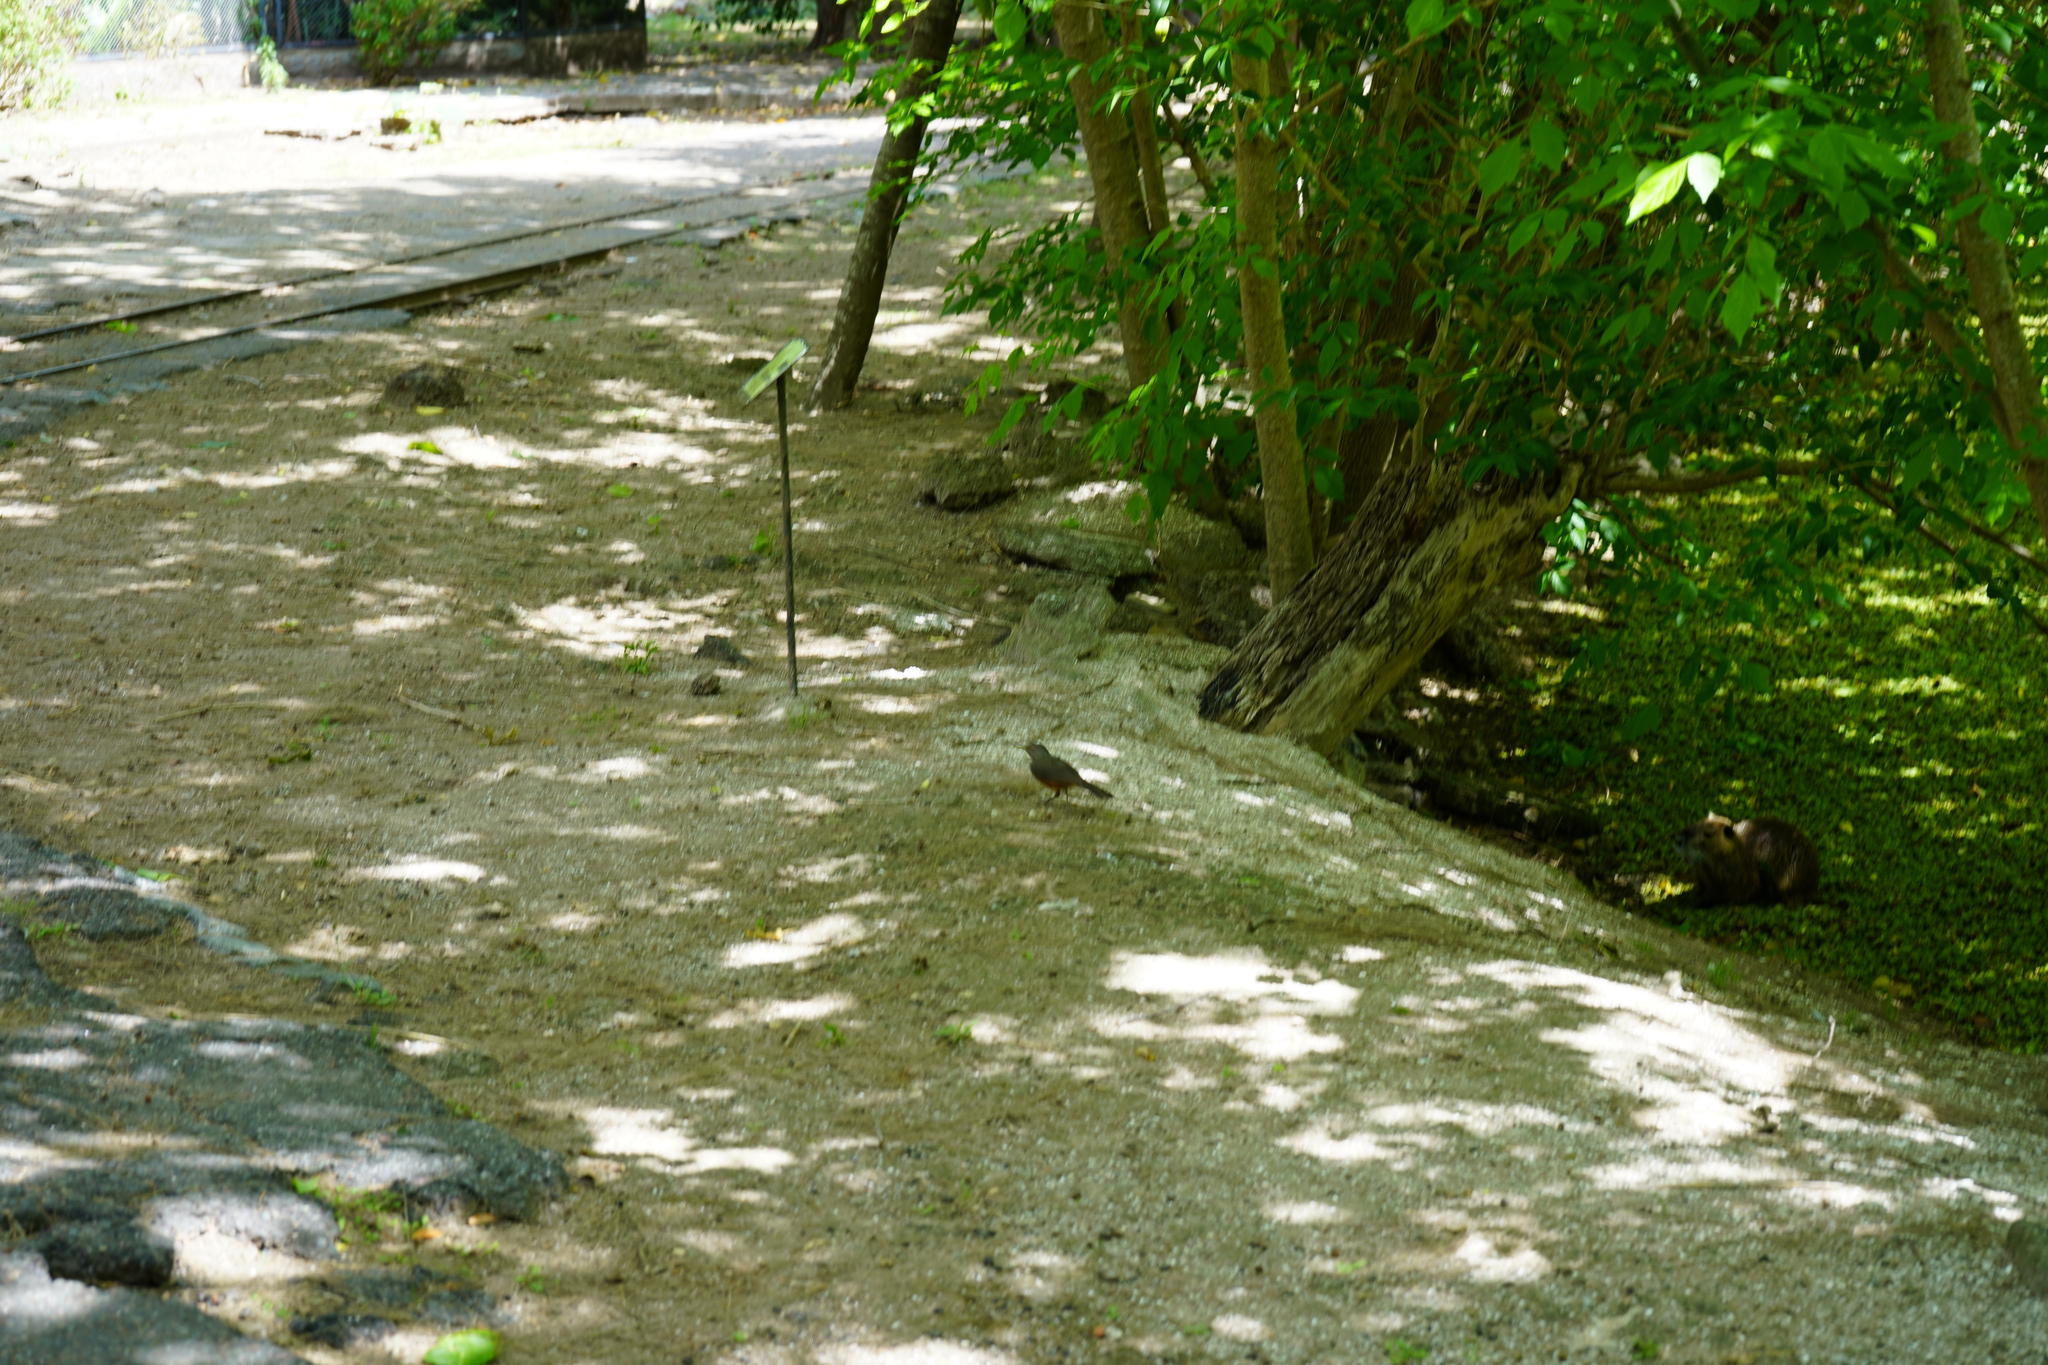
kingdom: Animalia
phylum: Chordata
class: Aves
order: Passeriformes
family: Turdidae
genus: Turdus
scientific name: Turdus rufiventris
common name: Rufous-bellied thrush
